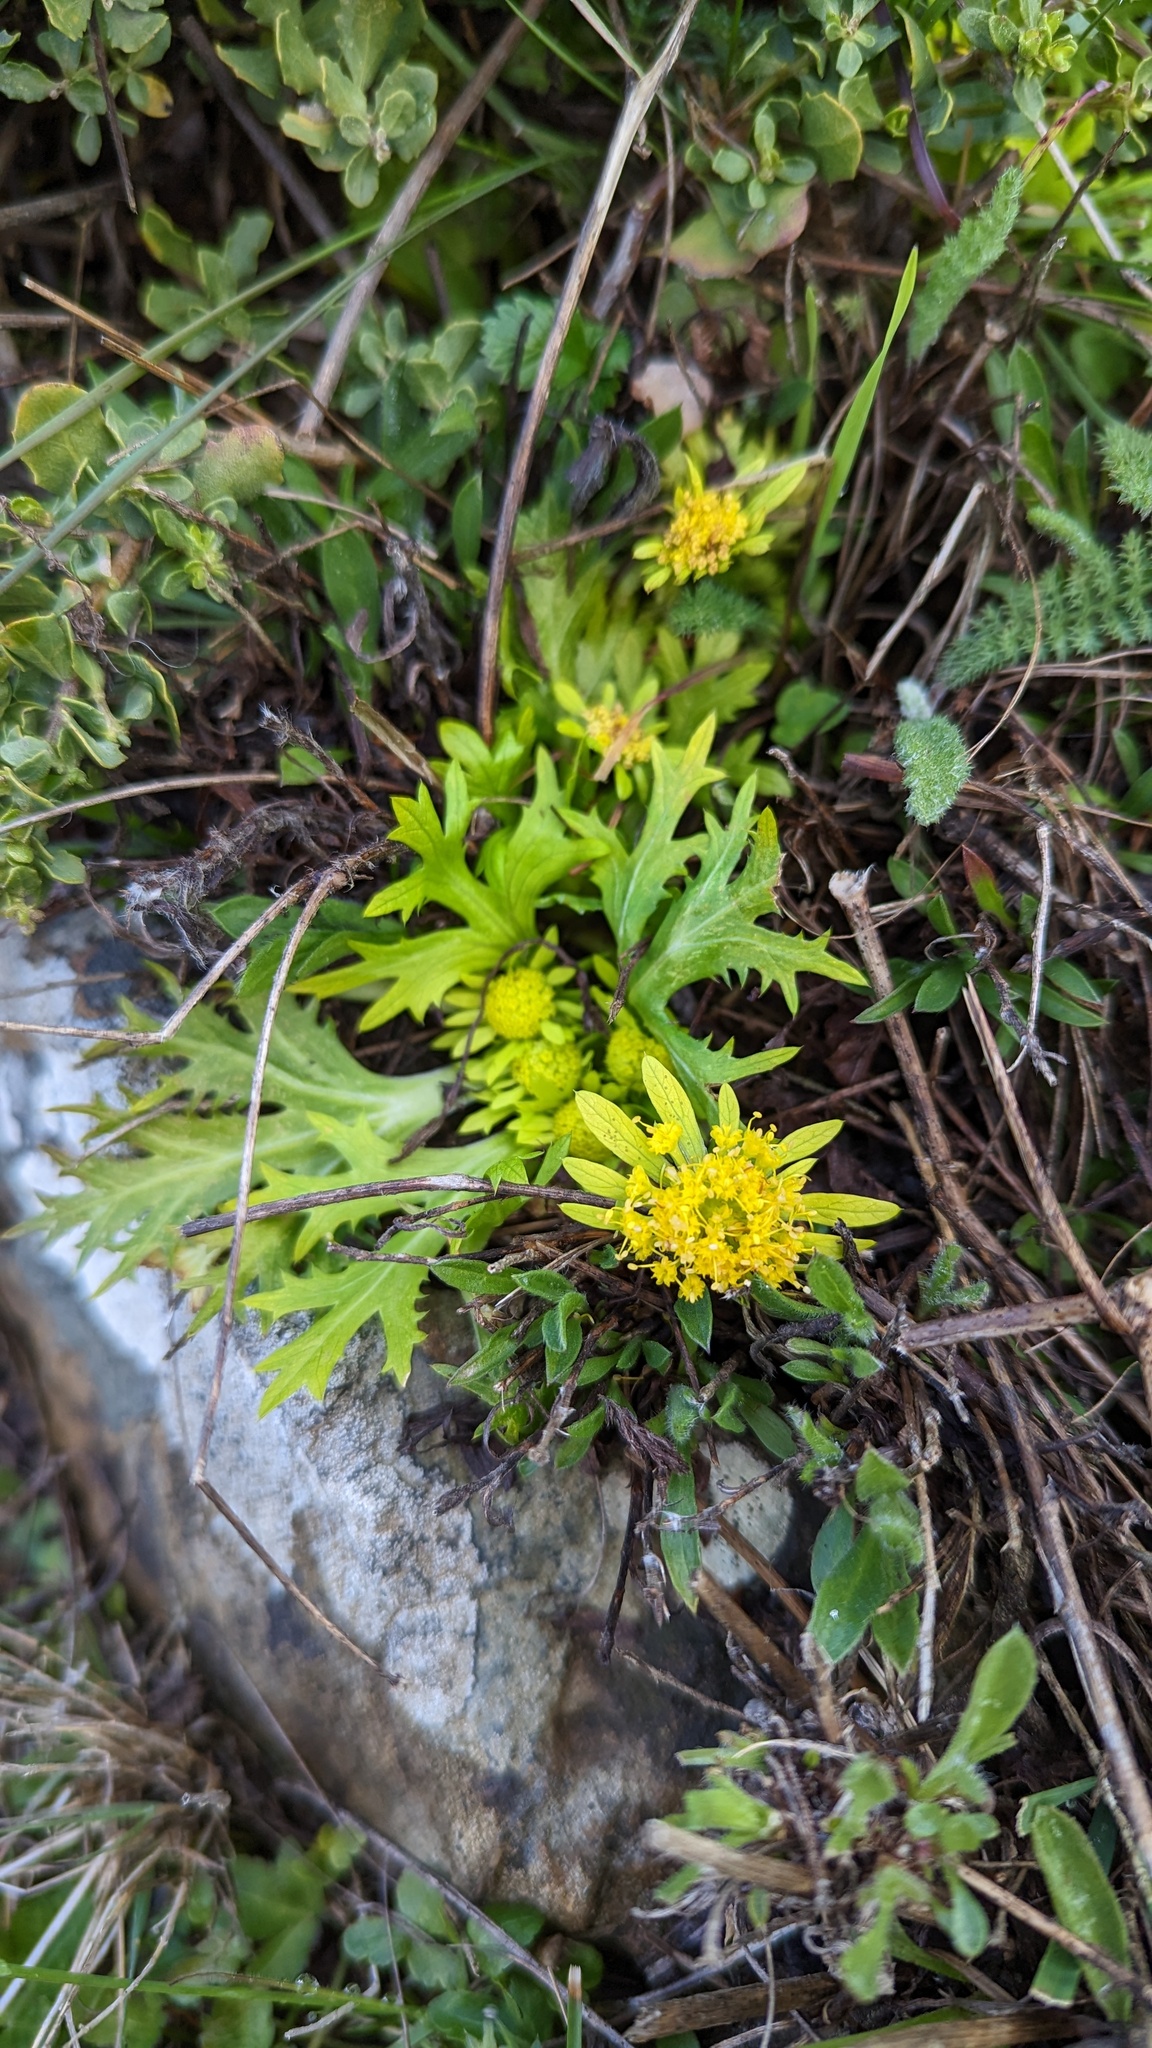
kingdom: Plantae
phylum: Tracheophyta
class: Magnoliopsida
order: Apiales
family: Apiaceae
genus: Sanicula
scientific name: Sanicula arctopoides
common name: Footsteps-of-spring
